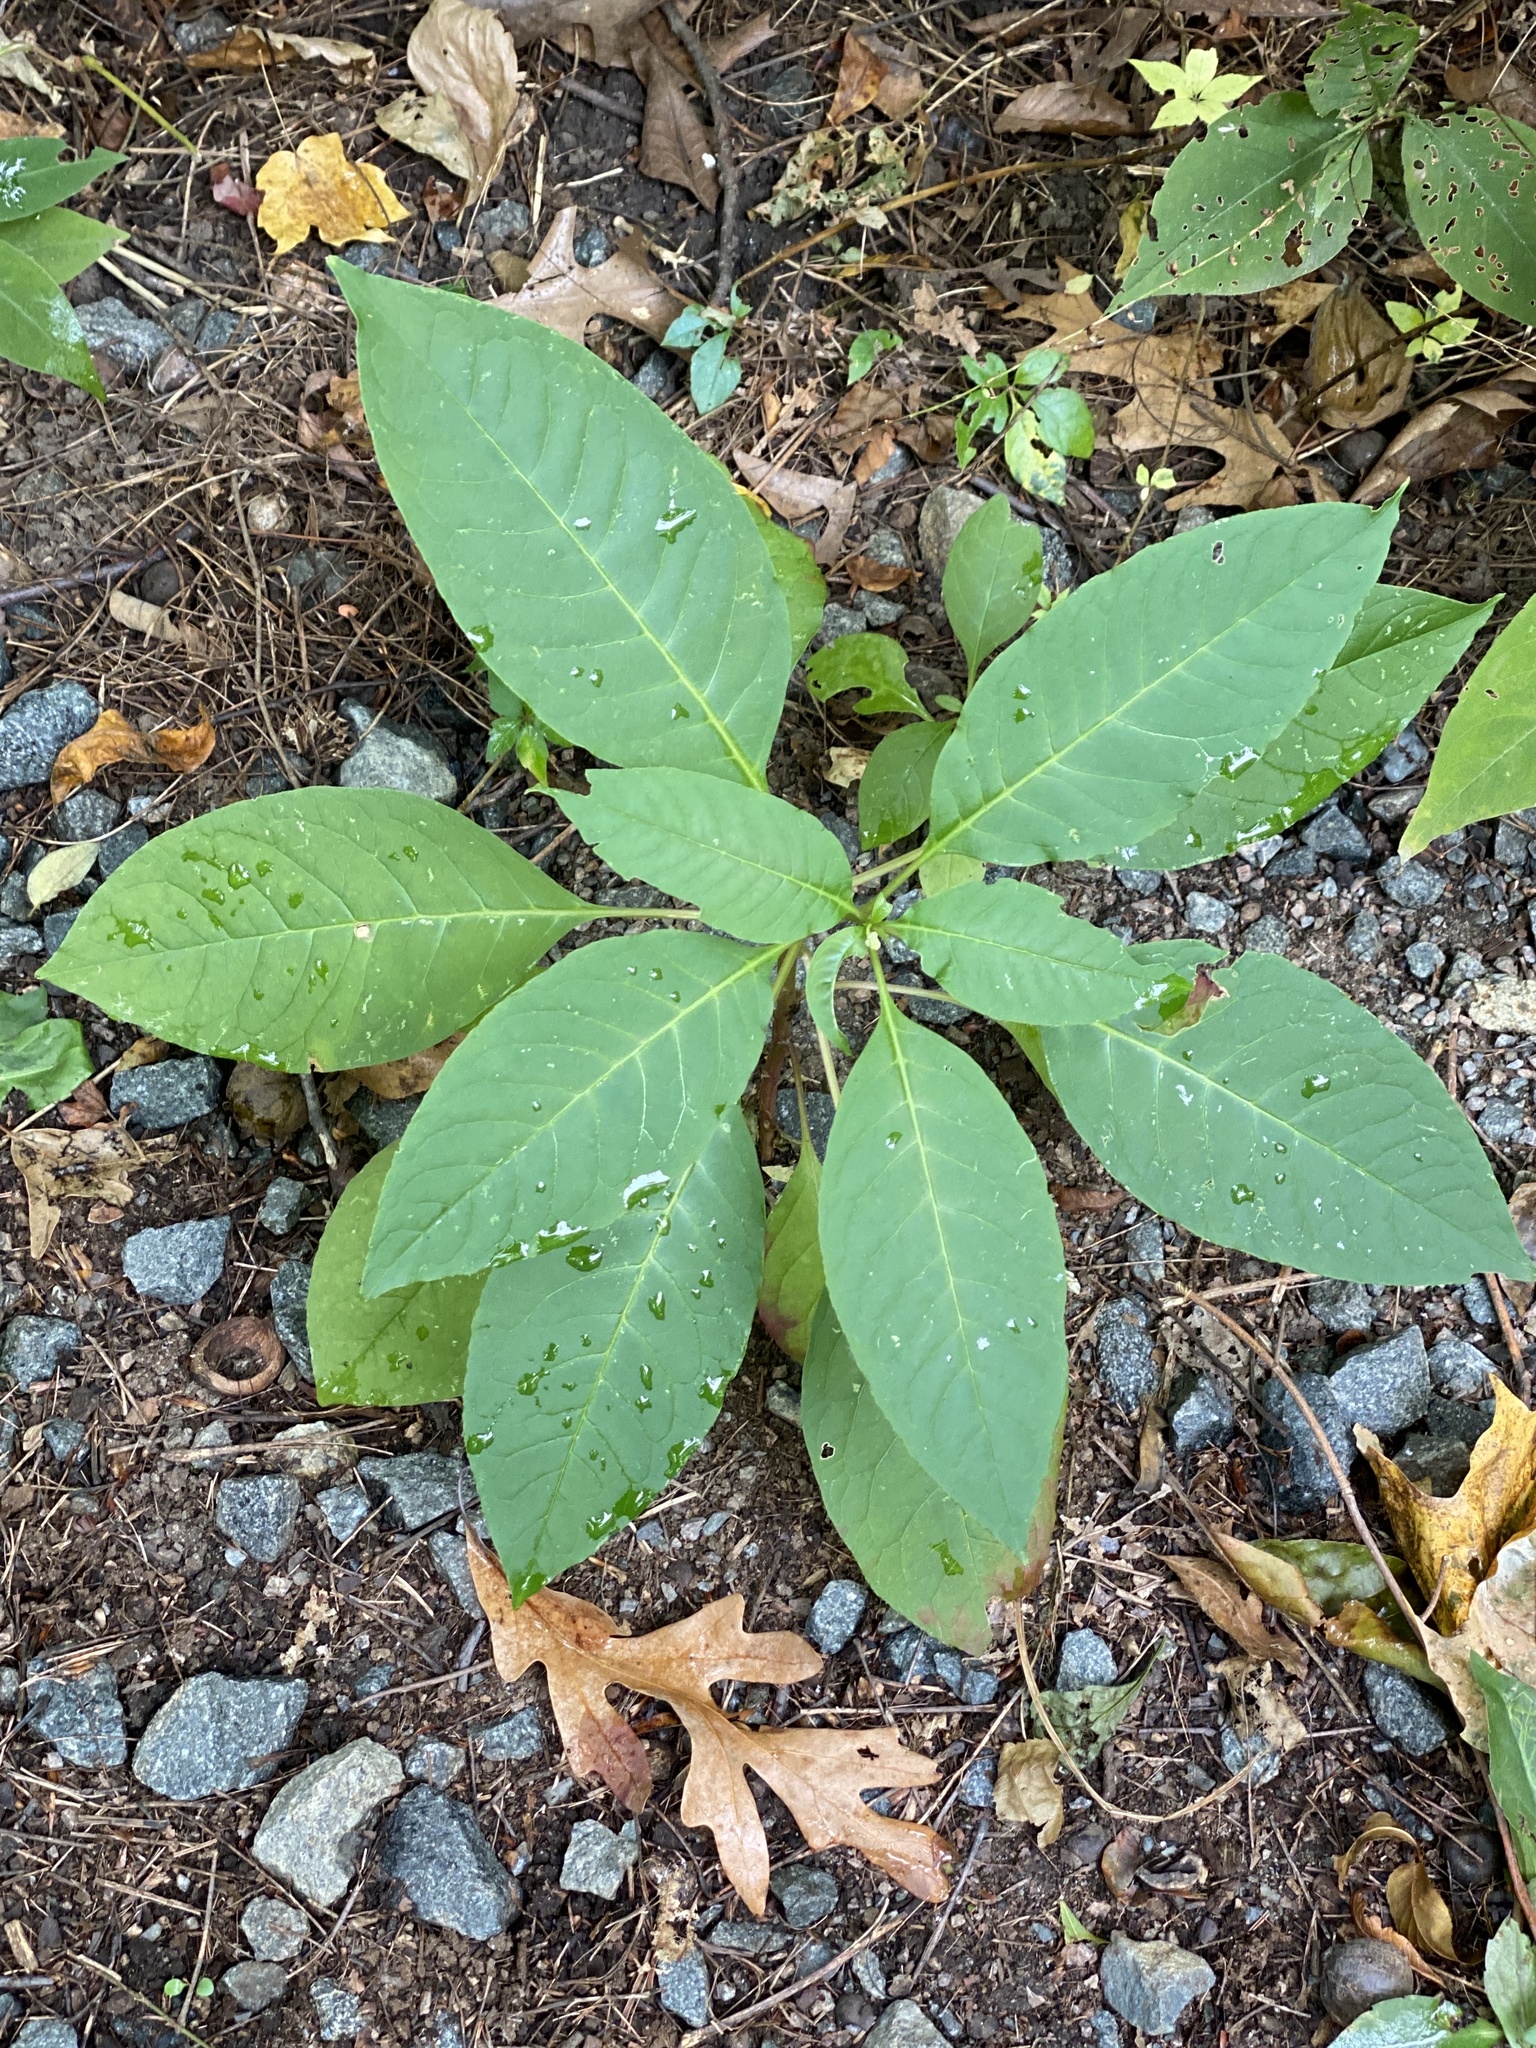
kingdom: Plantae
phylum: Tracheophyta
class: Magnoliopsida
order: Caryophyllales
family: Phytolaccaceae
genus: Phytolacca
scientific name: Phytolacca americana
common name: American pokeweed
